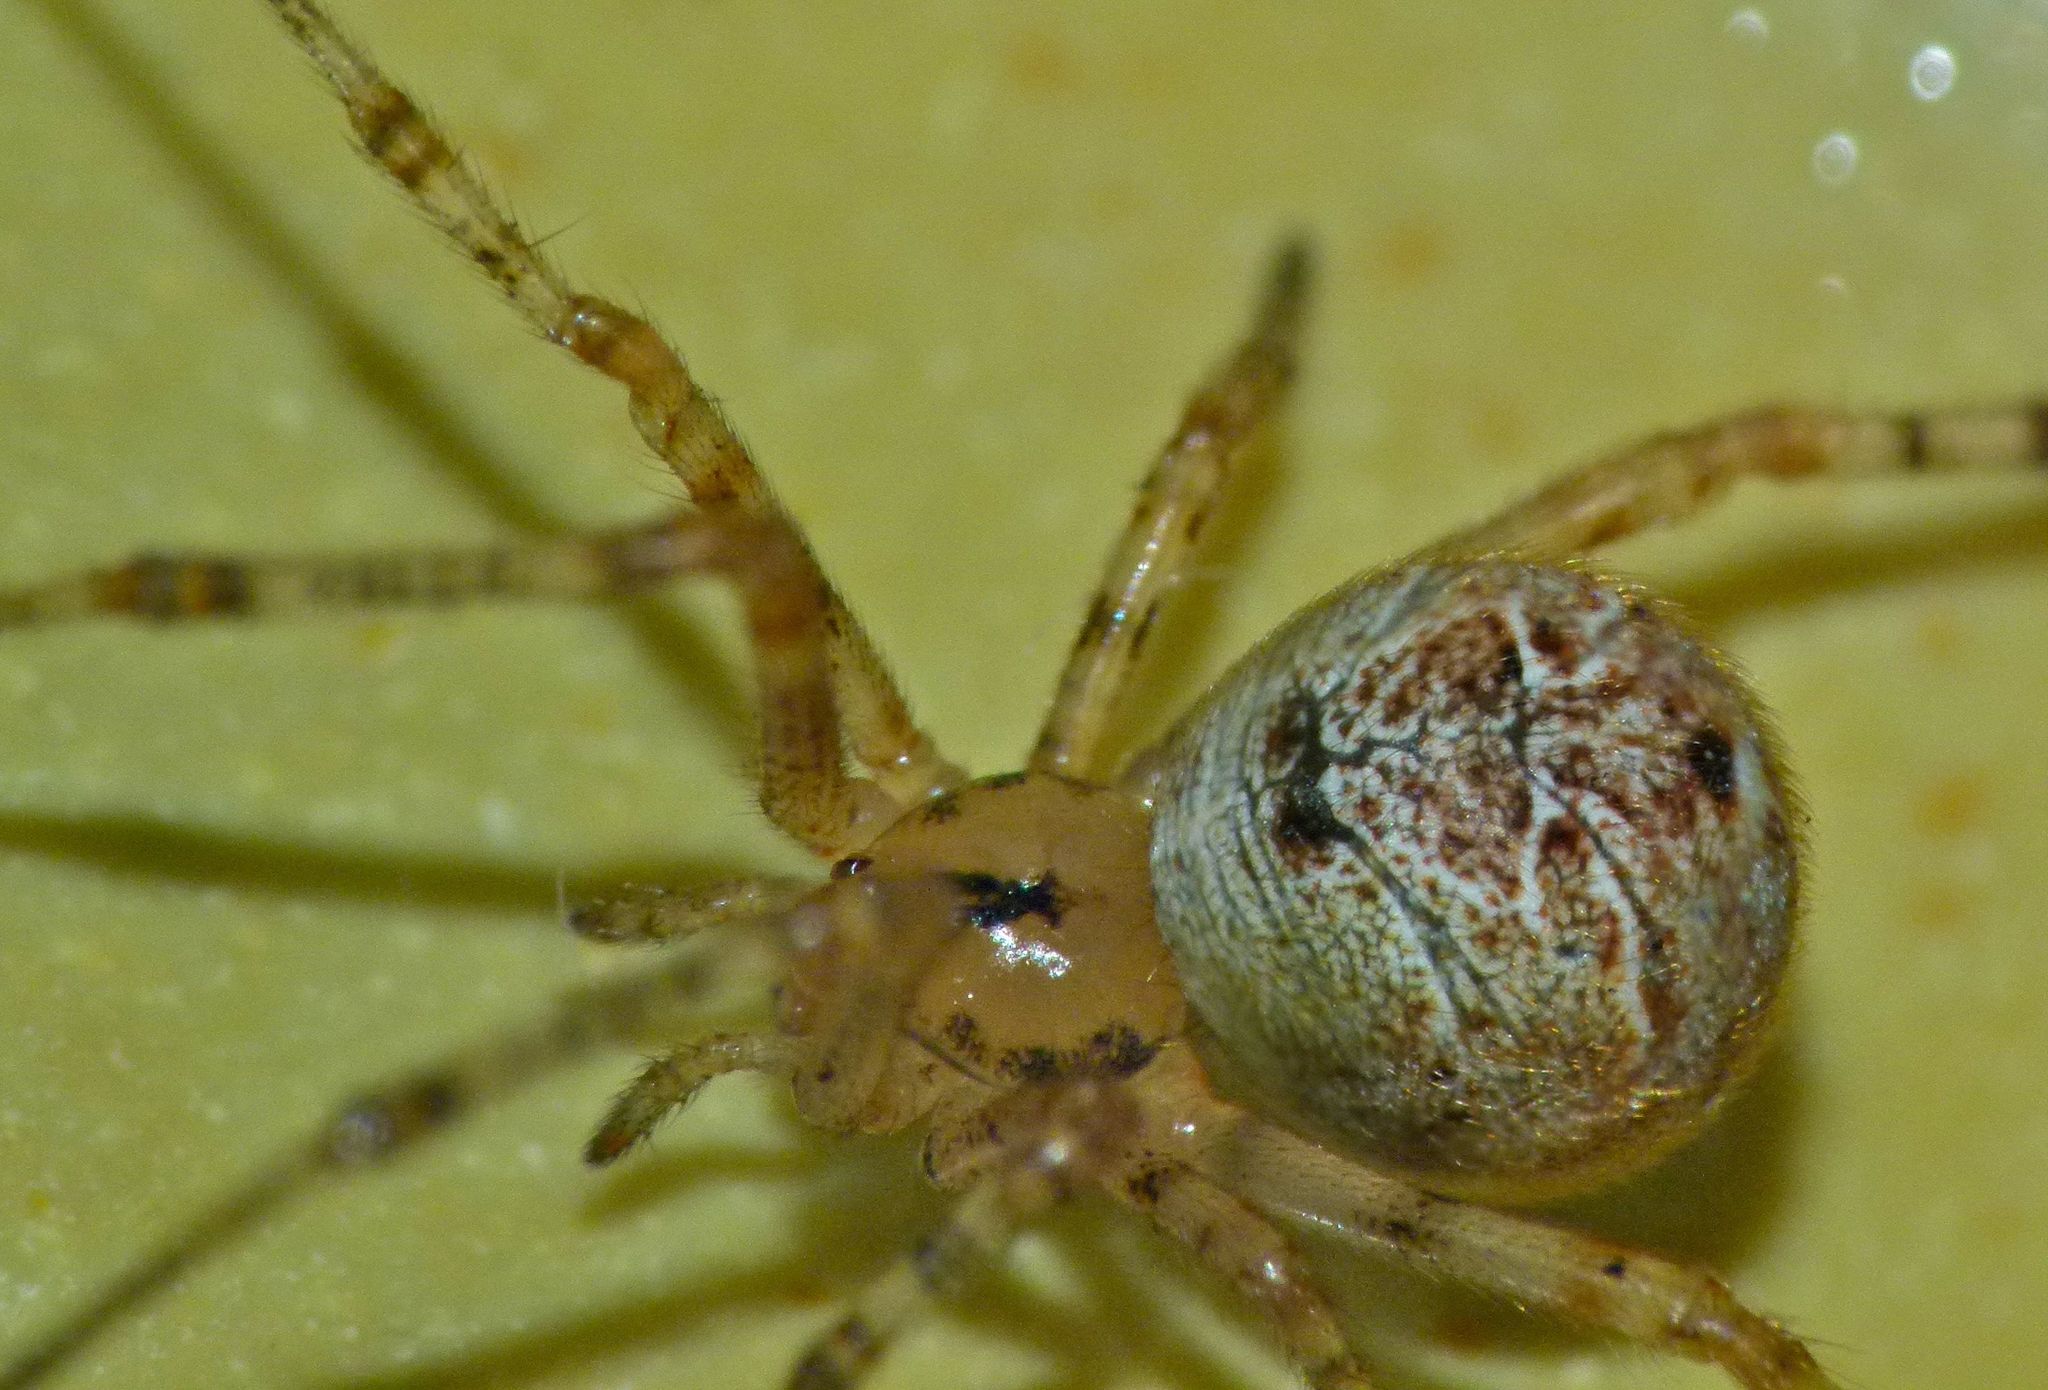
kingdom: Animalia
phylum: Arthropoda
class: Arachnida
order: Araneae
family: Theridiidae
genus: Parasteatoda
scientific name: Parasteatoda tepidariorum
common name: Common house spider
